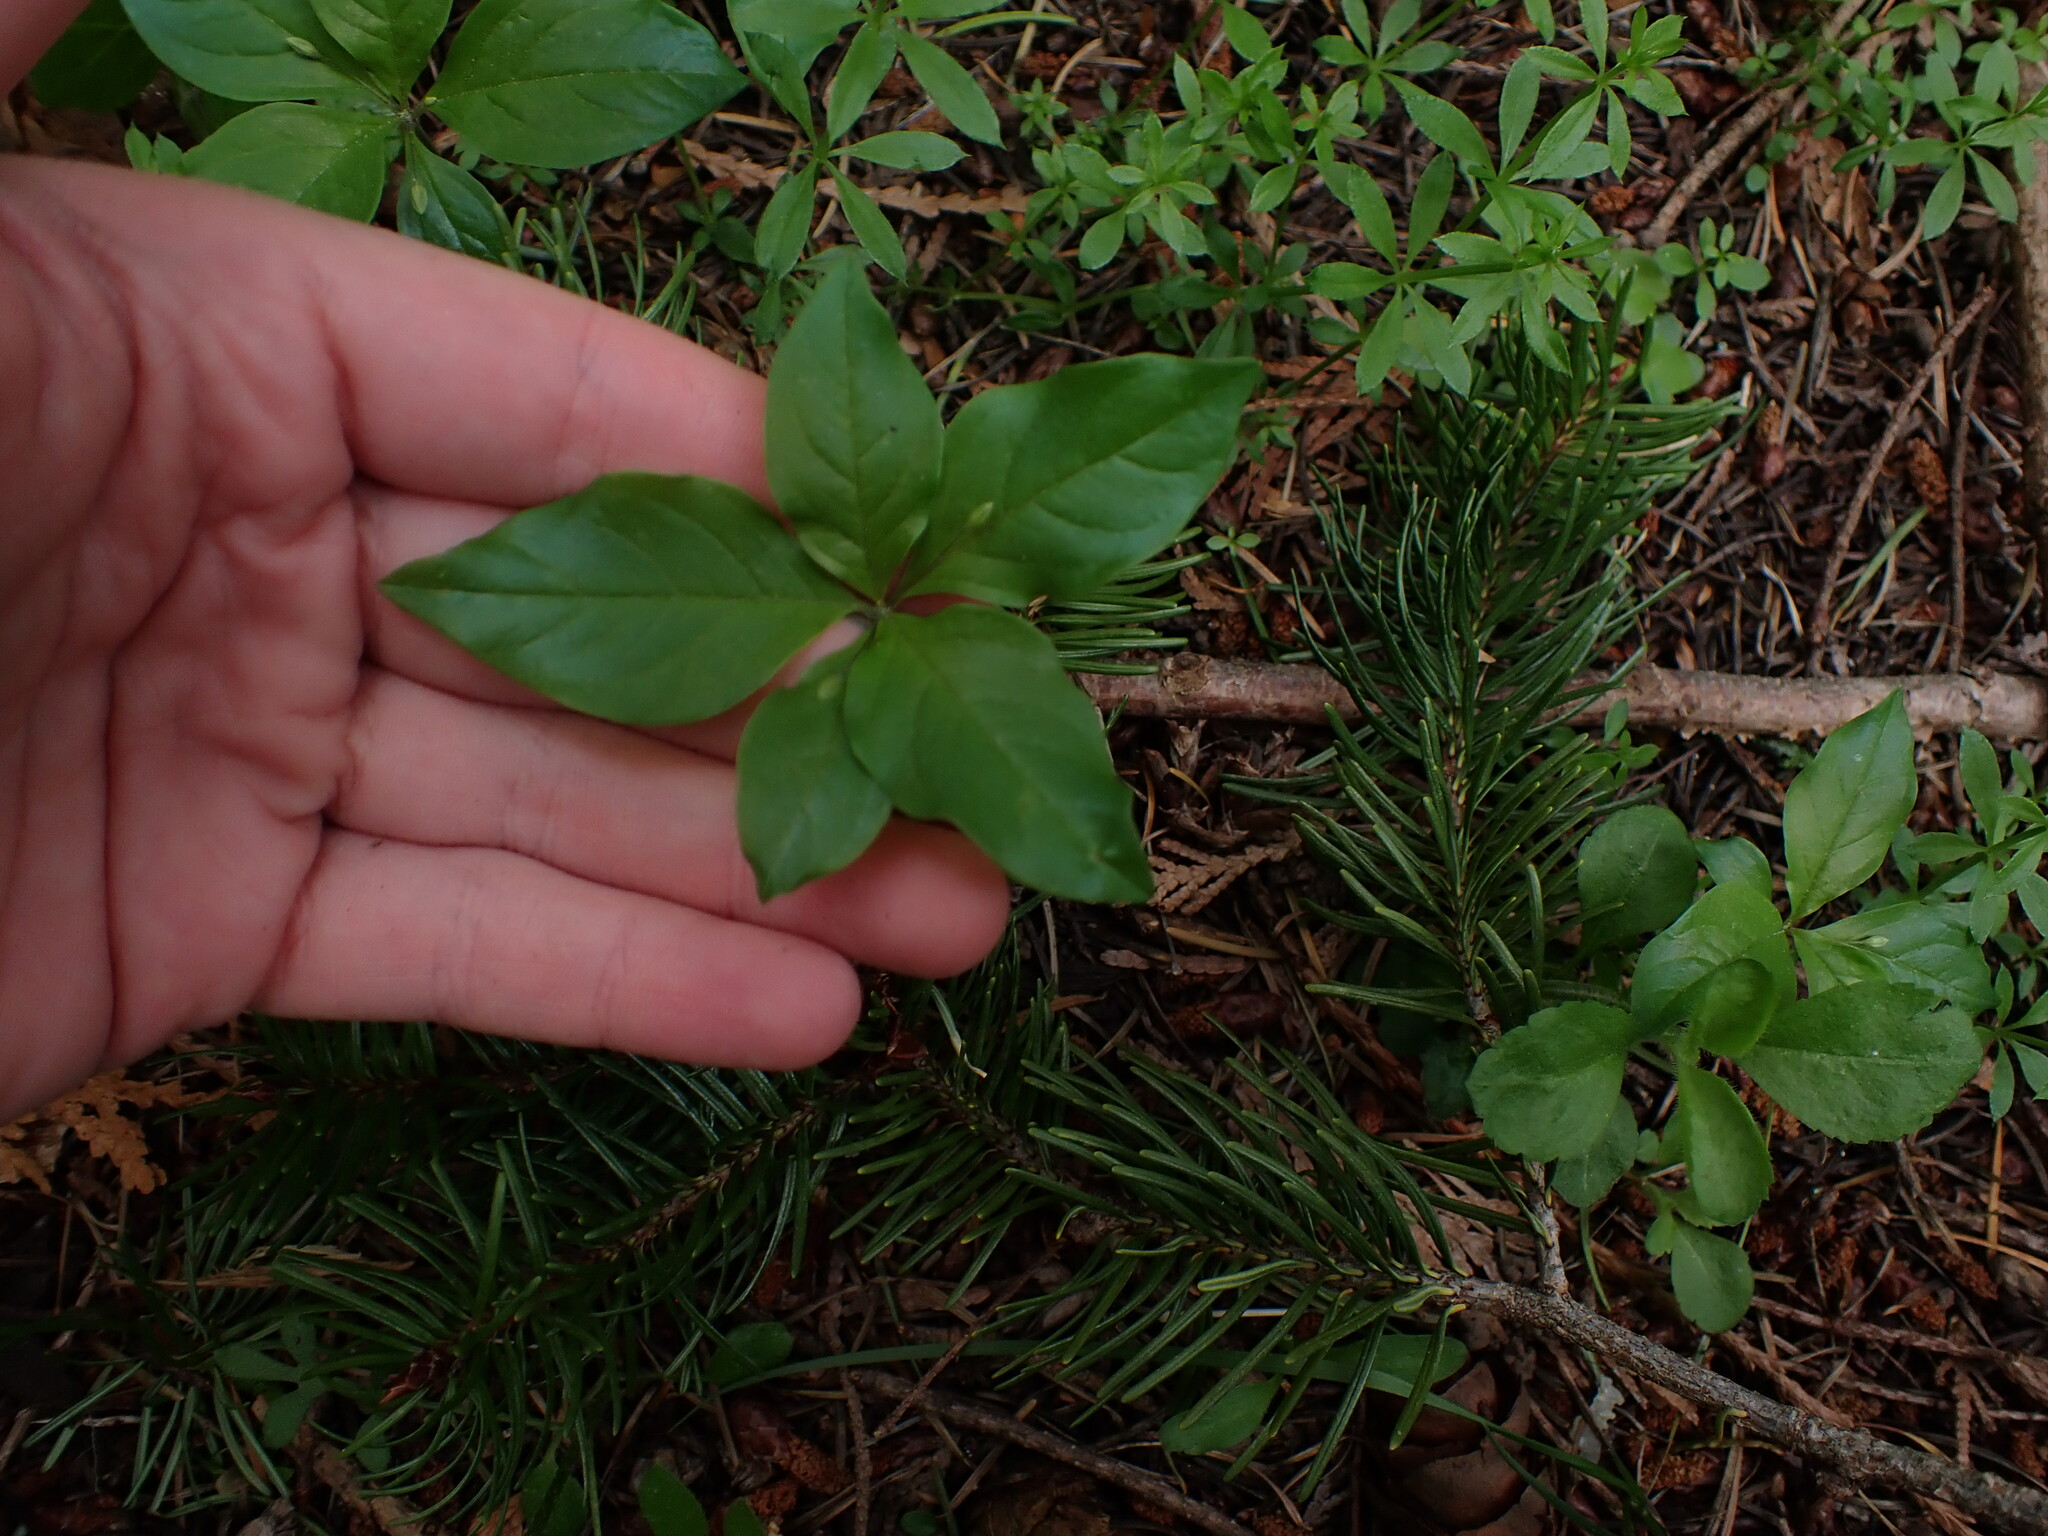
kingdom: Plantae
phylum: Tracheophyta
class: Magnoliopsida
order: Ericales
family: Primulaceae
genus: Lysimachia
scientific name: Lysimachia latifolia
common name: Pacific starflower
